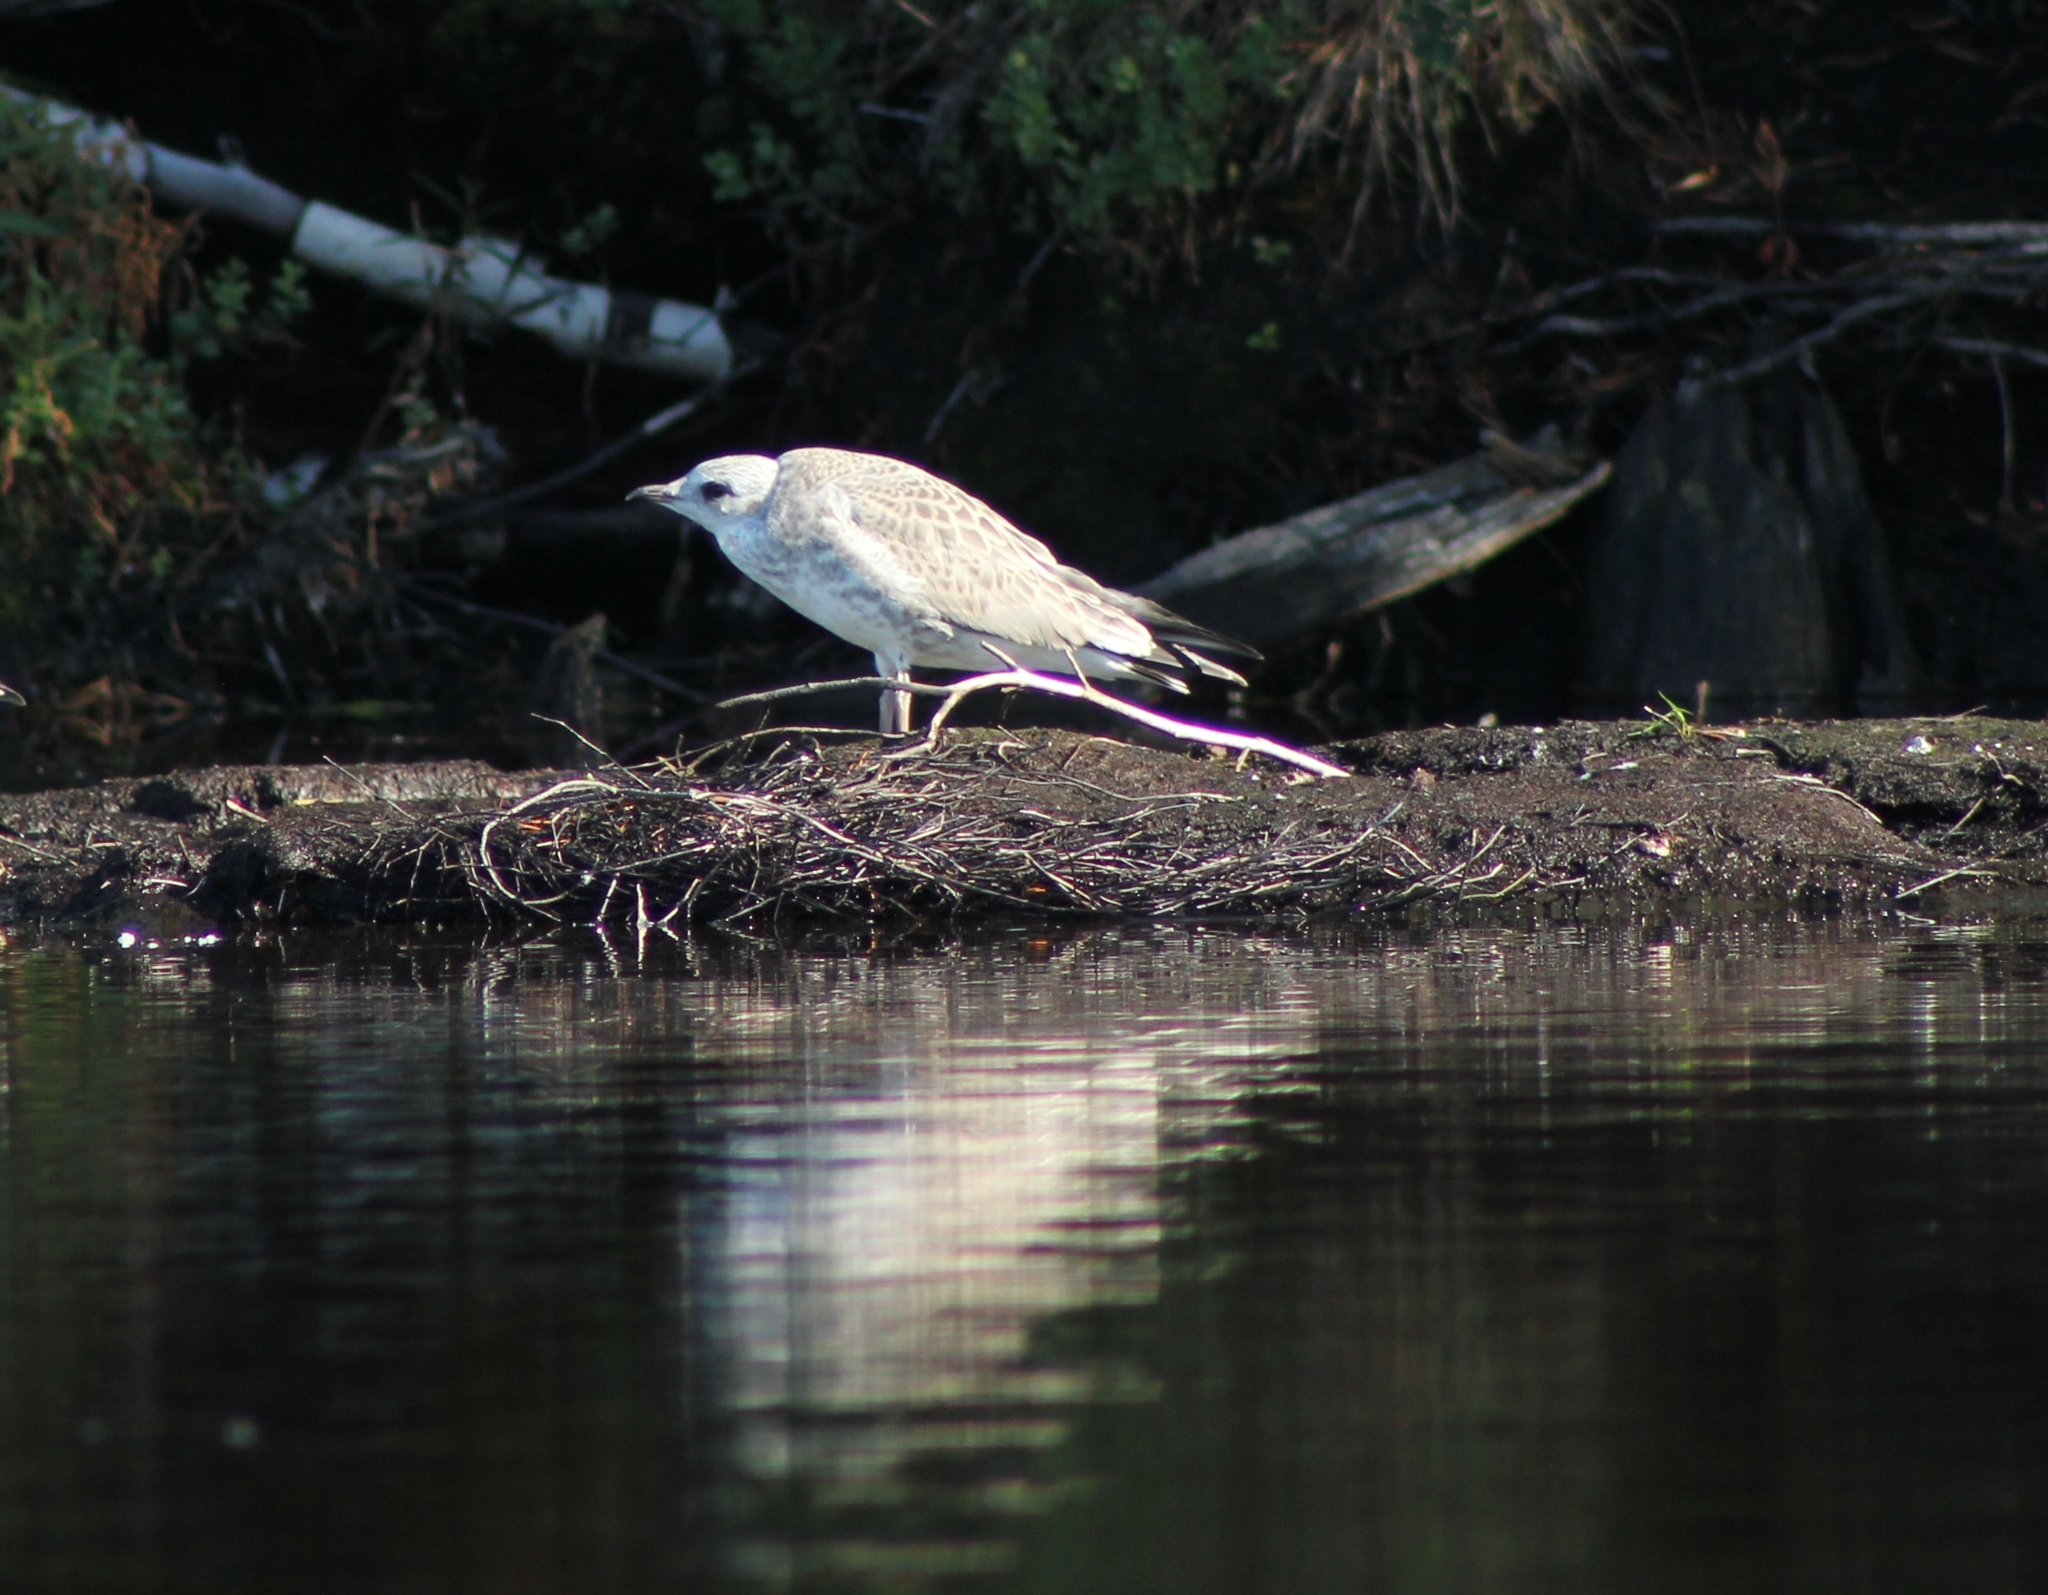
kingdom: Animalia
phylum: Chordata
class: Aves
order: Charadriiformes
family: Laridae
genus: Larus
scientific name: Larus canus
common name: Mew gull
